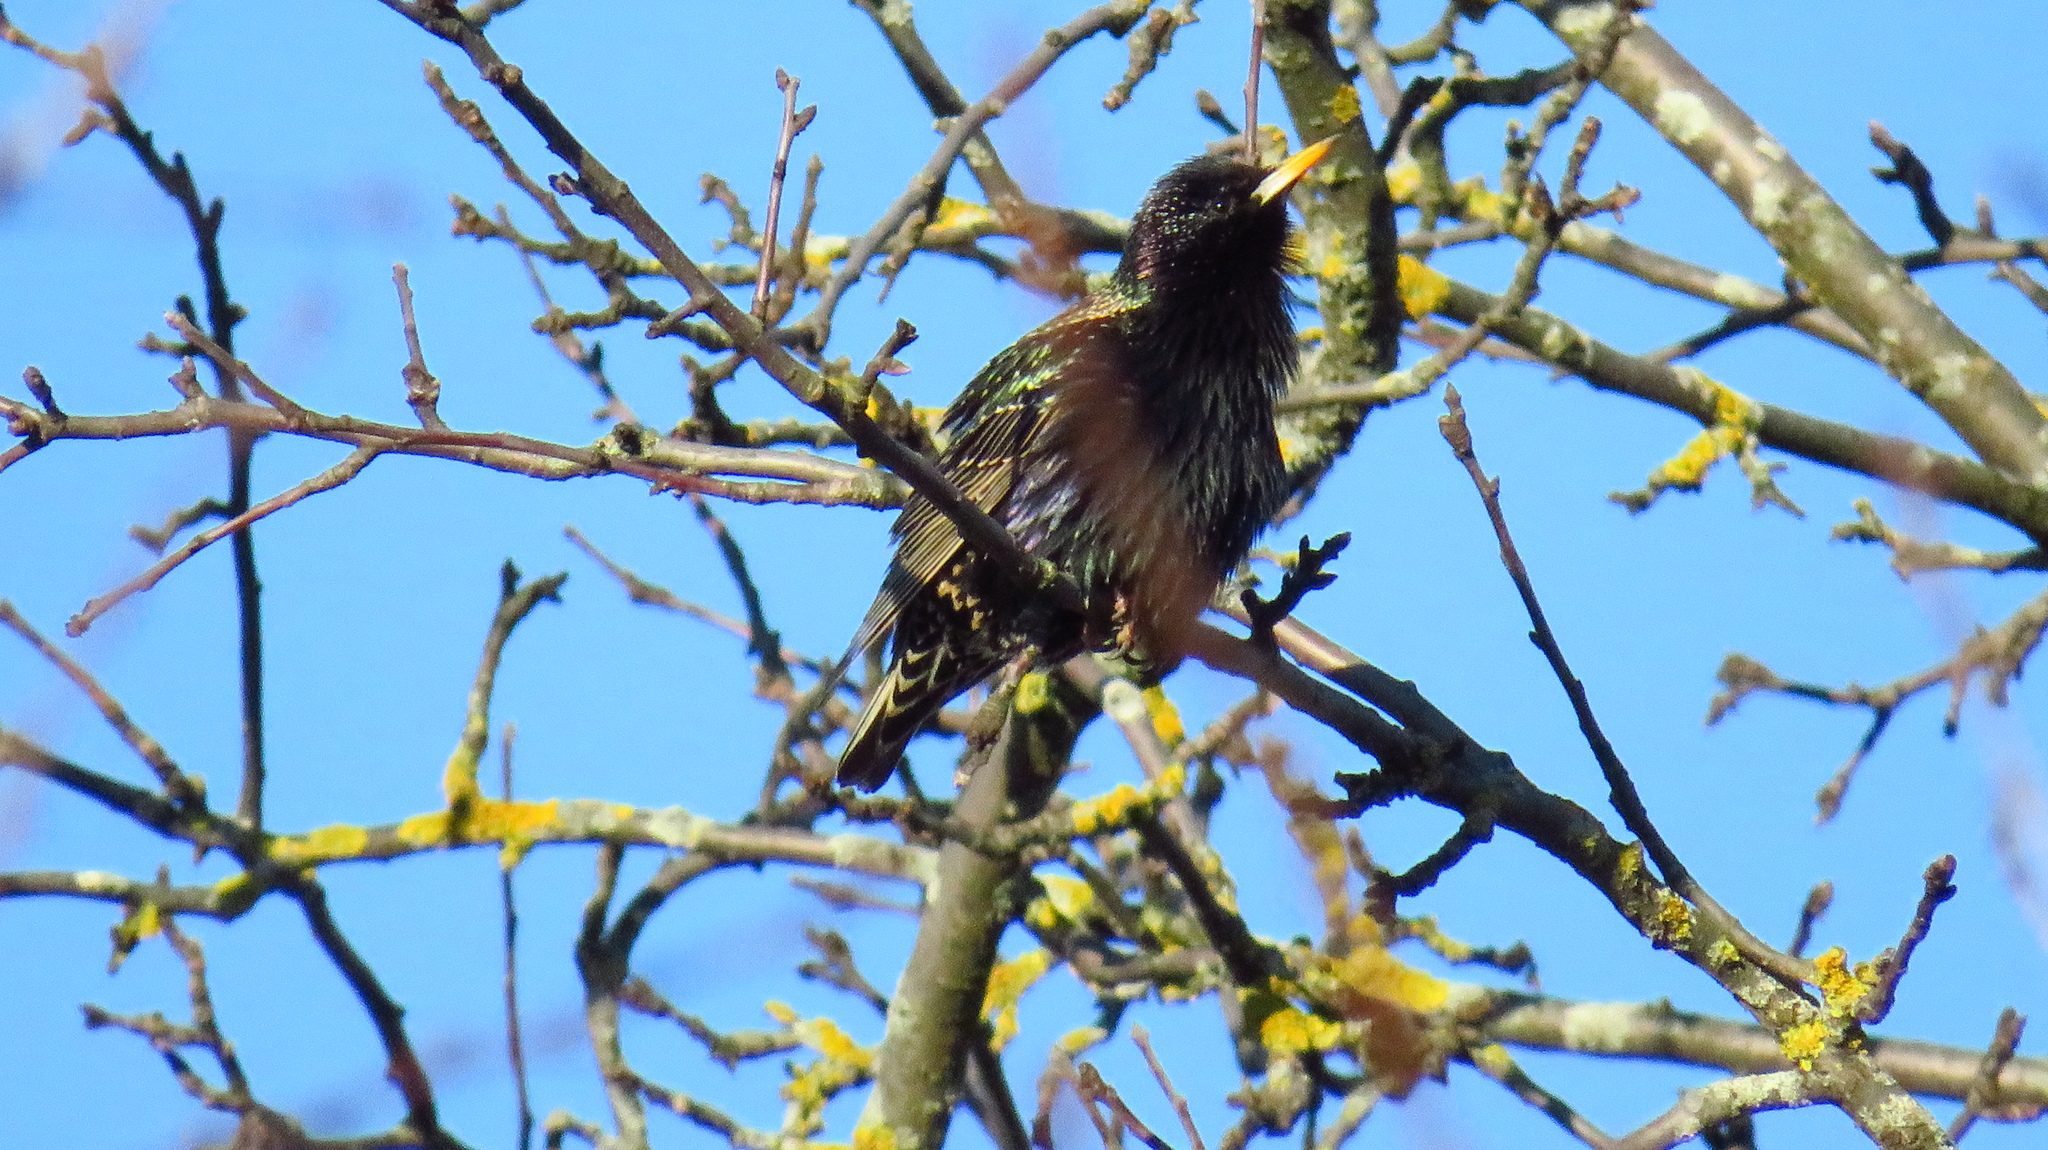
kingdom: Animalia
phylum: Chordata
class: Aves
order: Passeriformes
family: Sturnidae
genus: Sturnus
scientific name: Sturnus vulgaris
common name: Common starling
